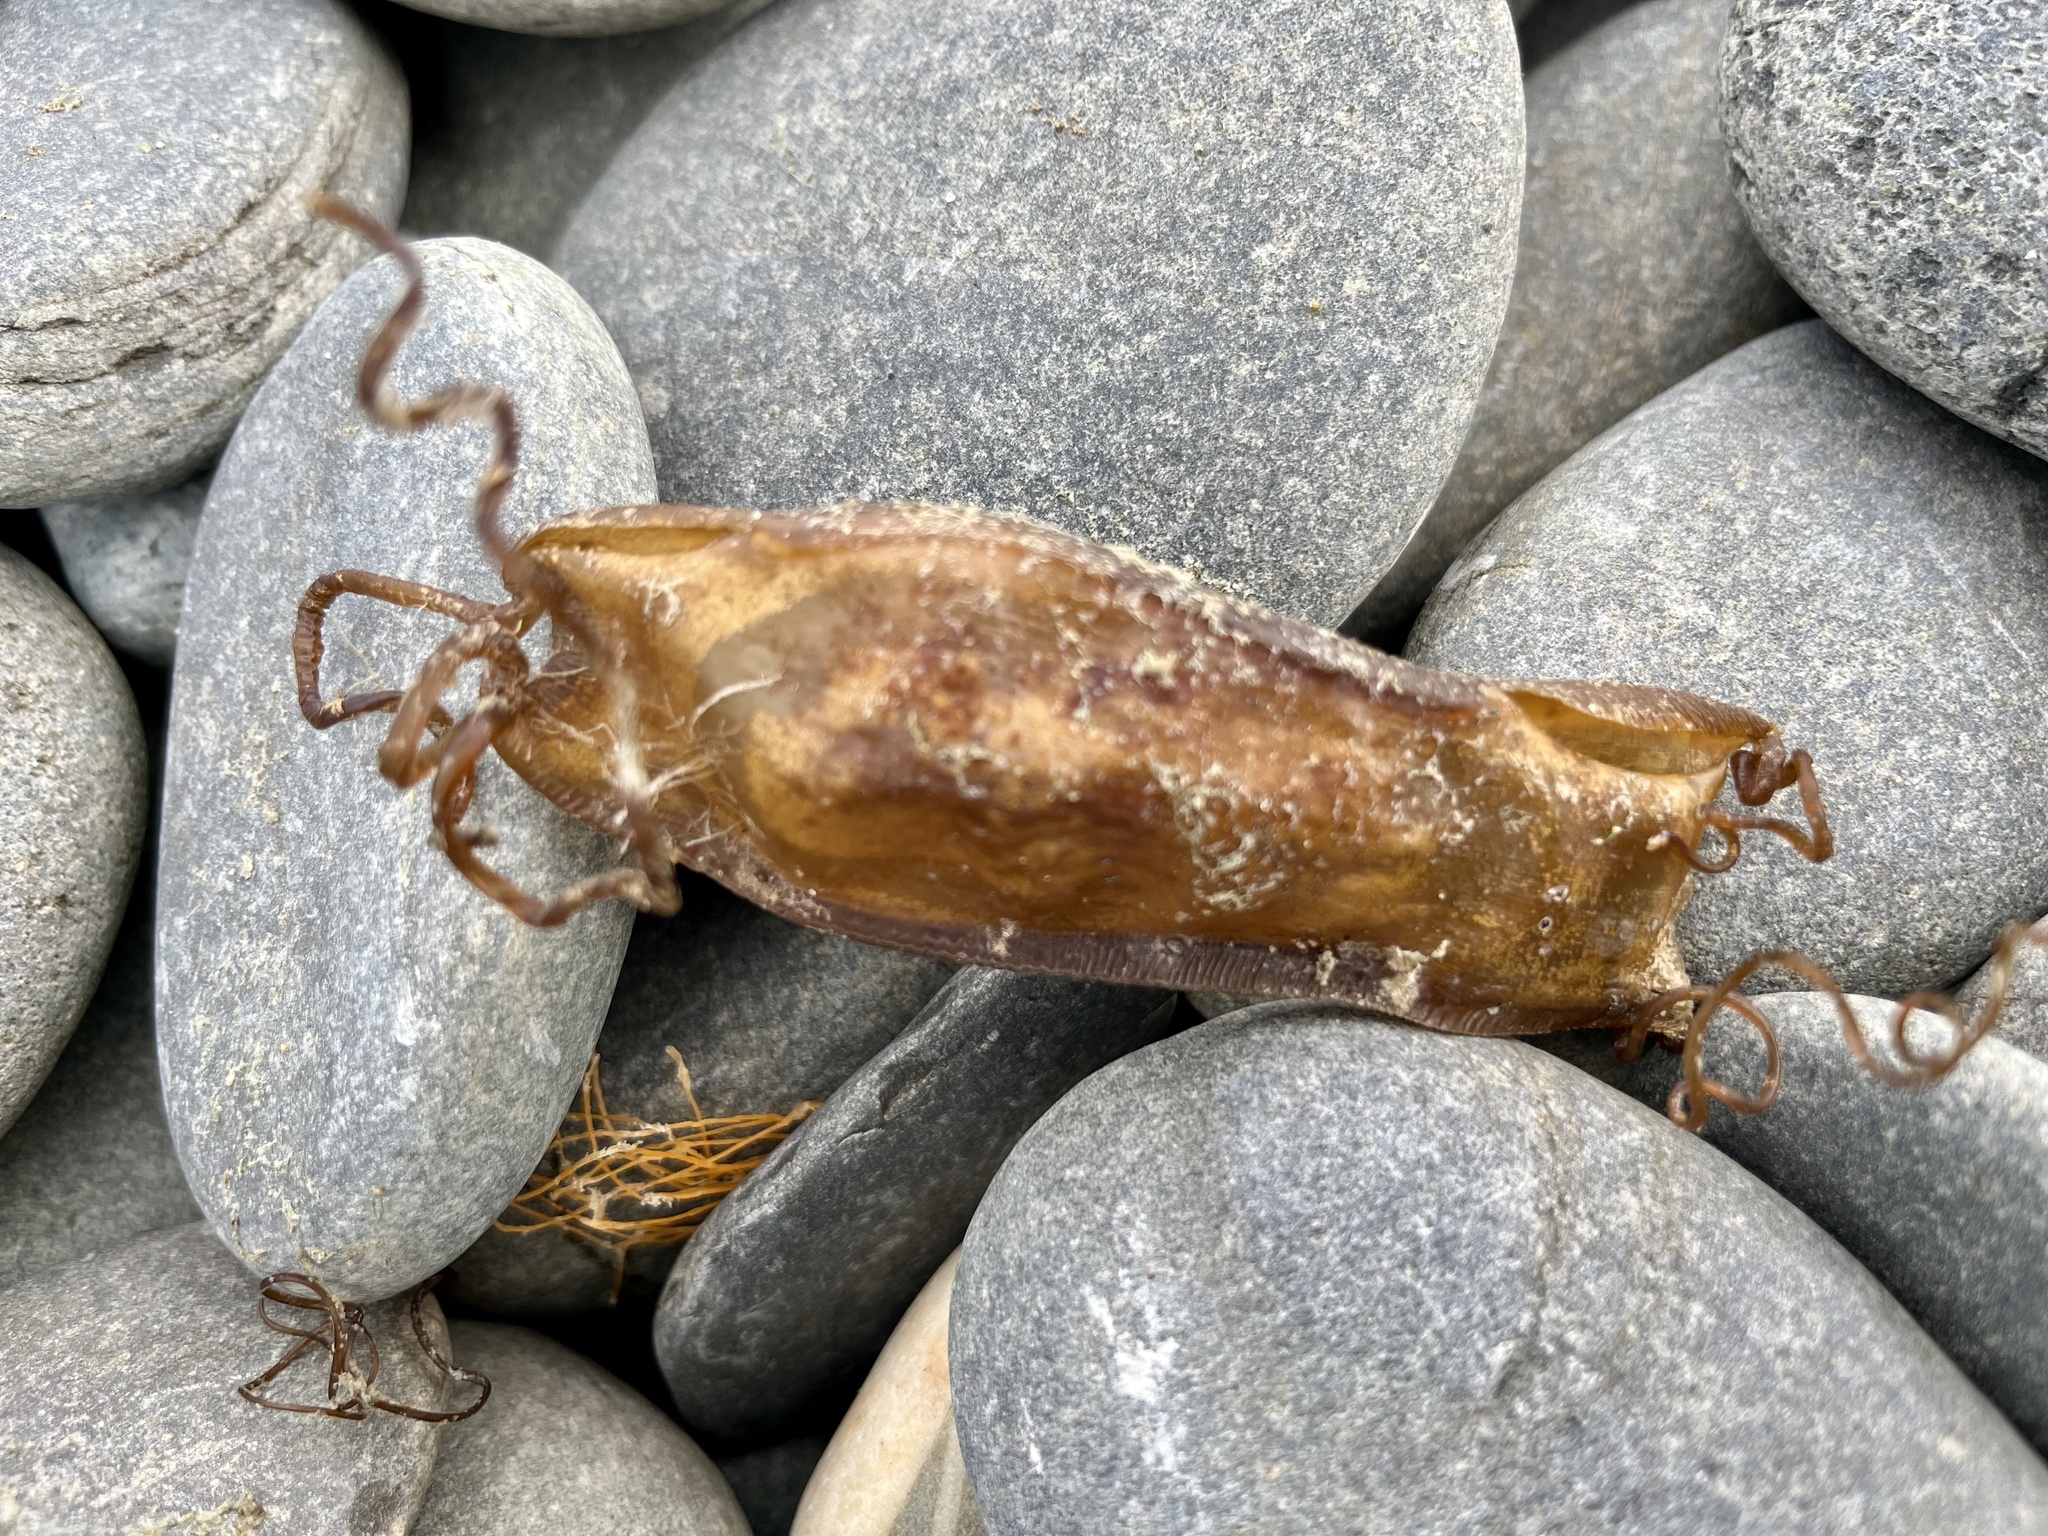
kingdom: Animalia
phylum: Chordata
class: Elasmobranchii
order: Carcharhiniformes
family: Scyliorhinidae
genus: Scyliorhinus
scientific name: Scyliorhinus canicula
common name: Lesser spotted dogfish
